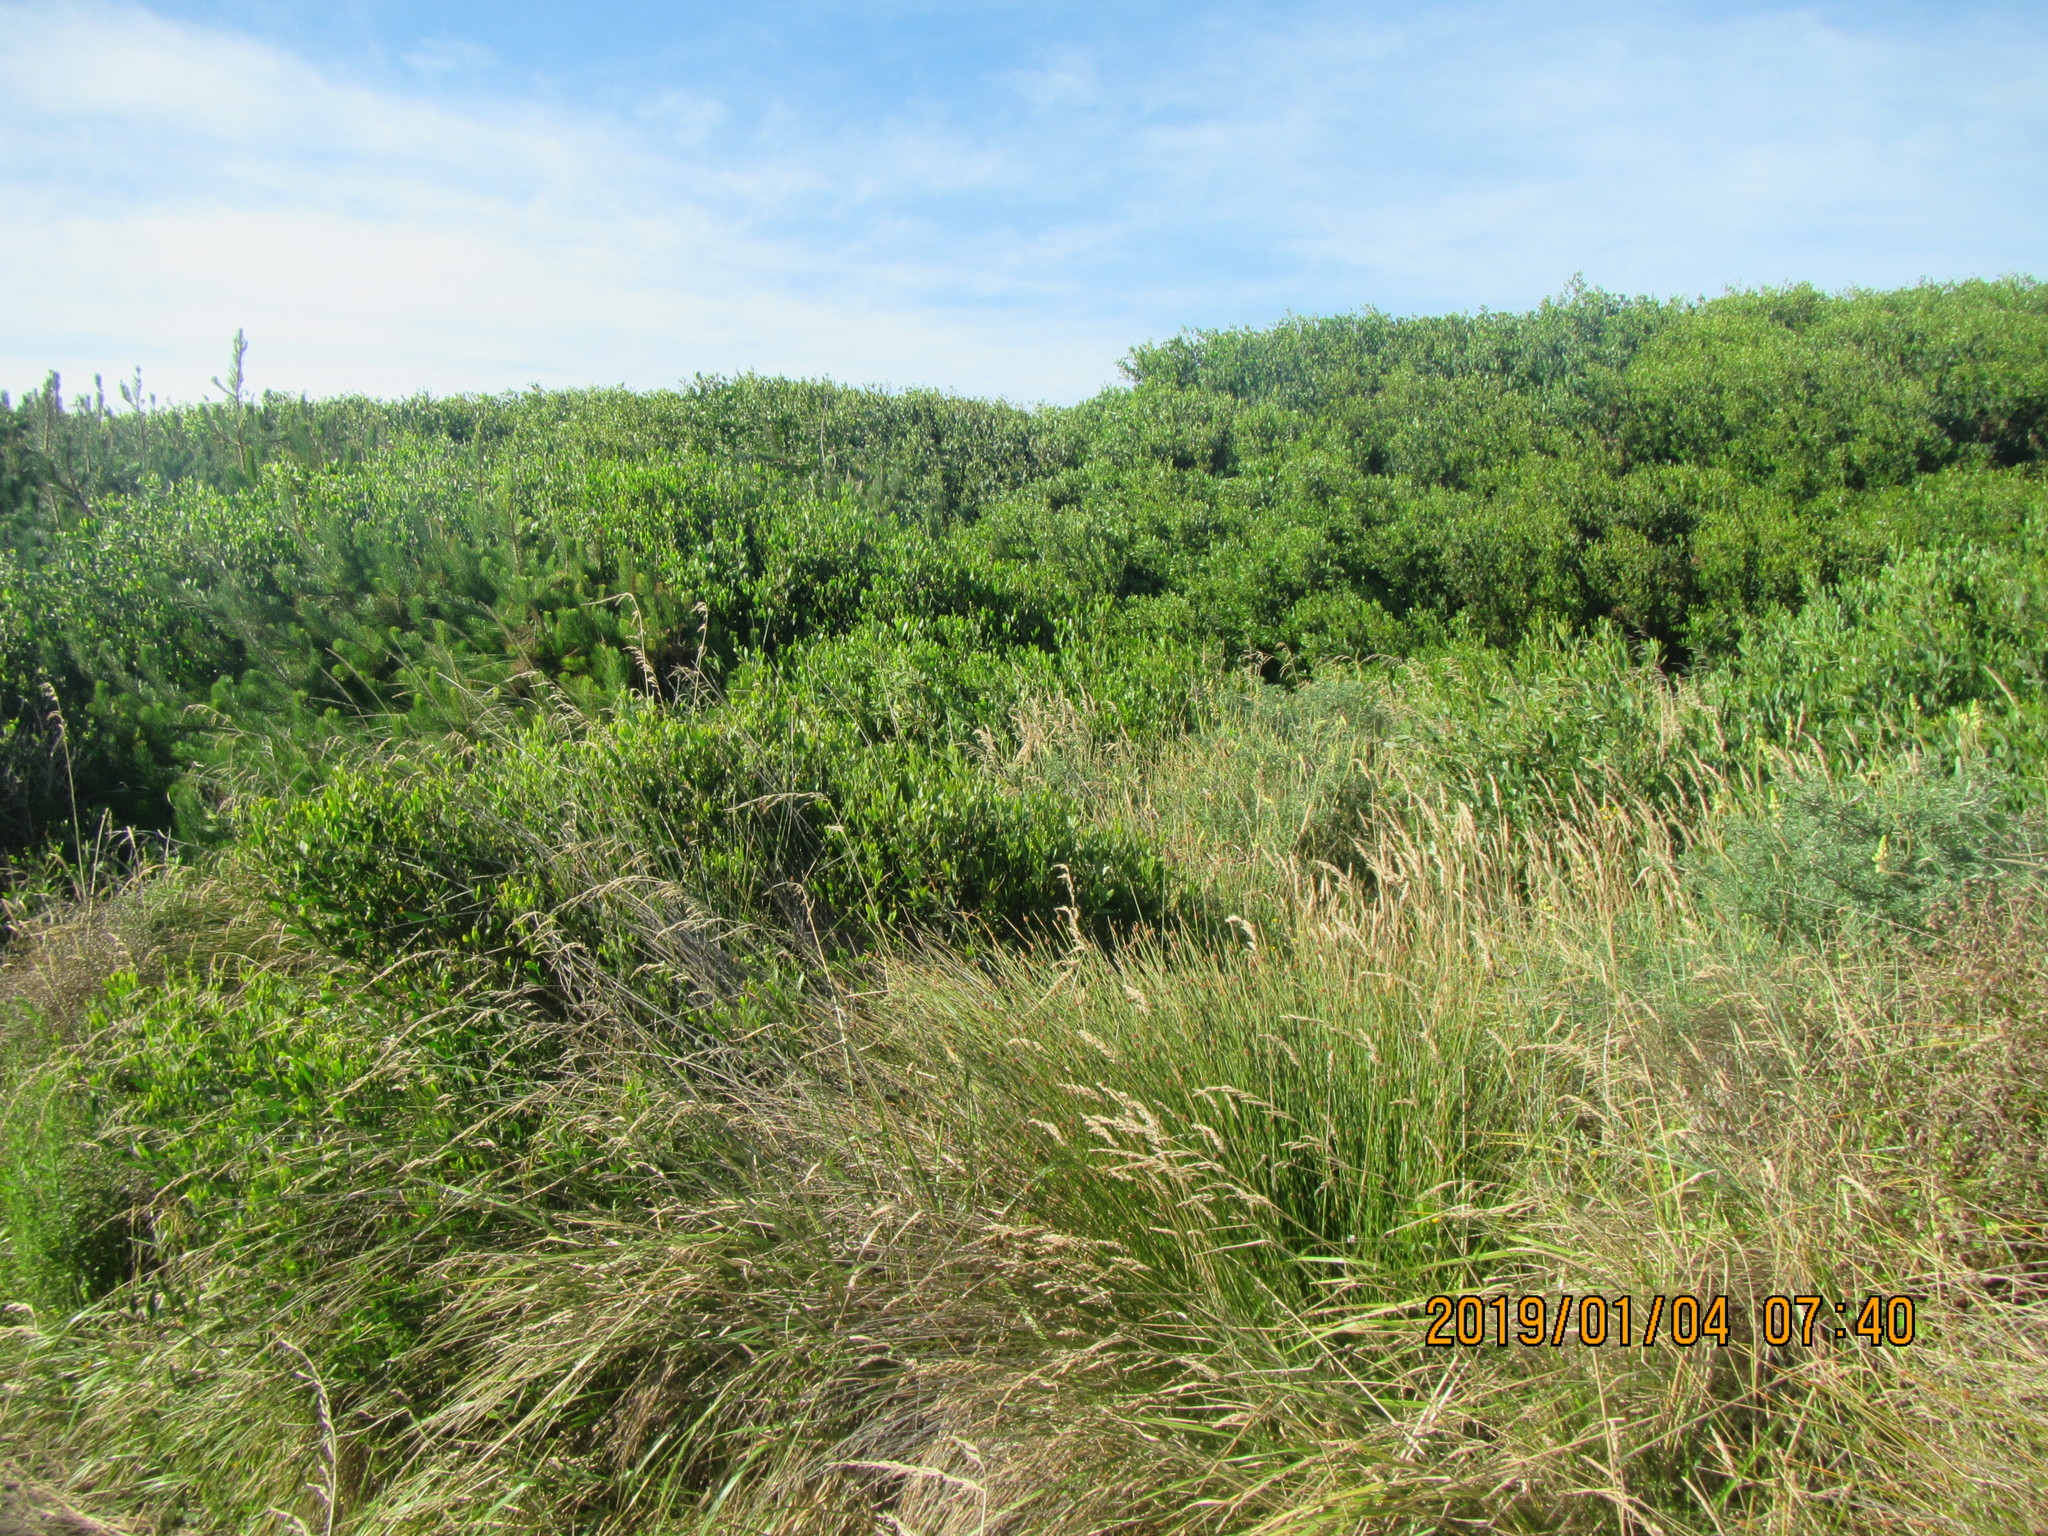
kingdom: Plantae
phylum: Tracheophyta
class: Magnoliopsida
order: Fabales
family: Fabaceae
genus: Acacia
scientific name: Acacia longifolia
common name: Sydney golden wattle
